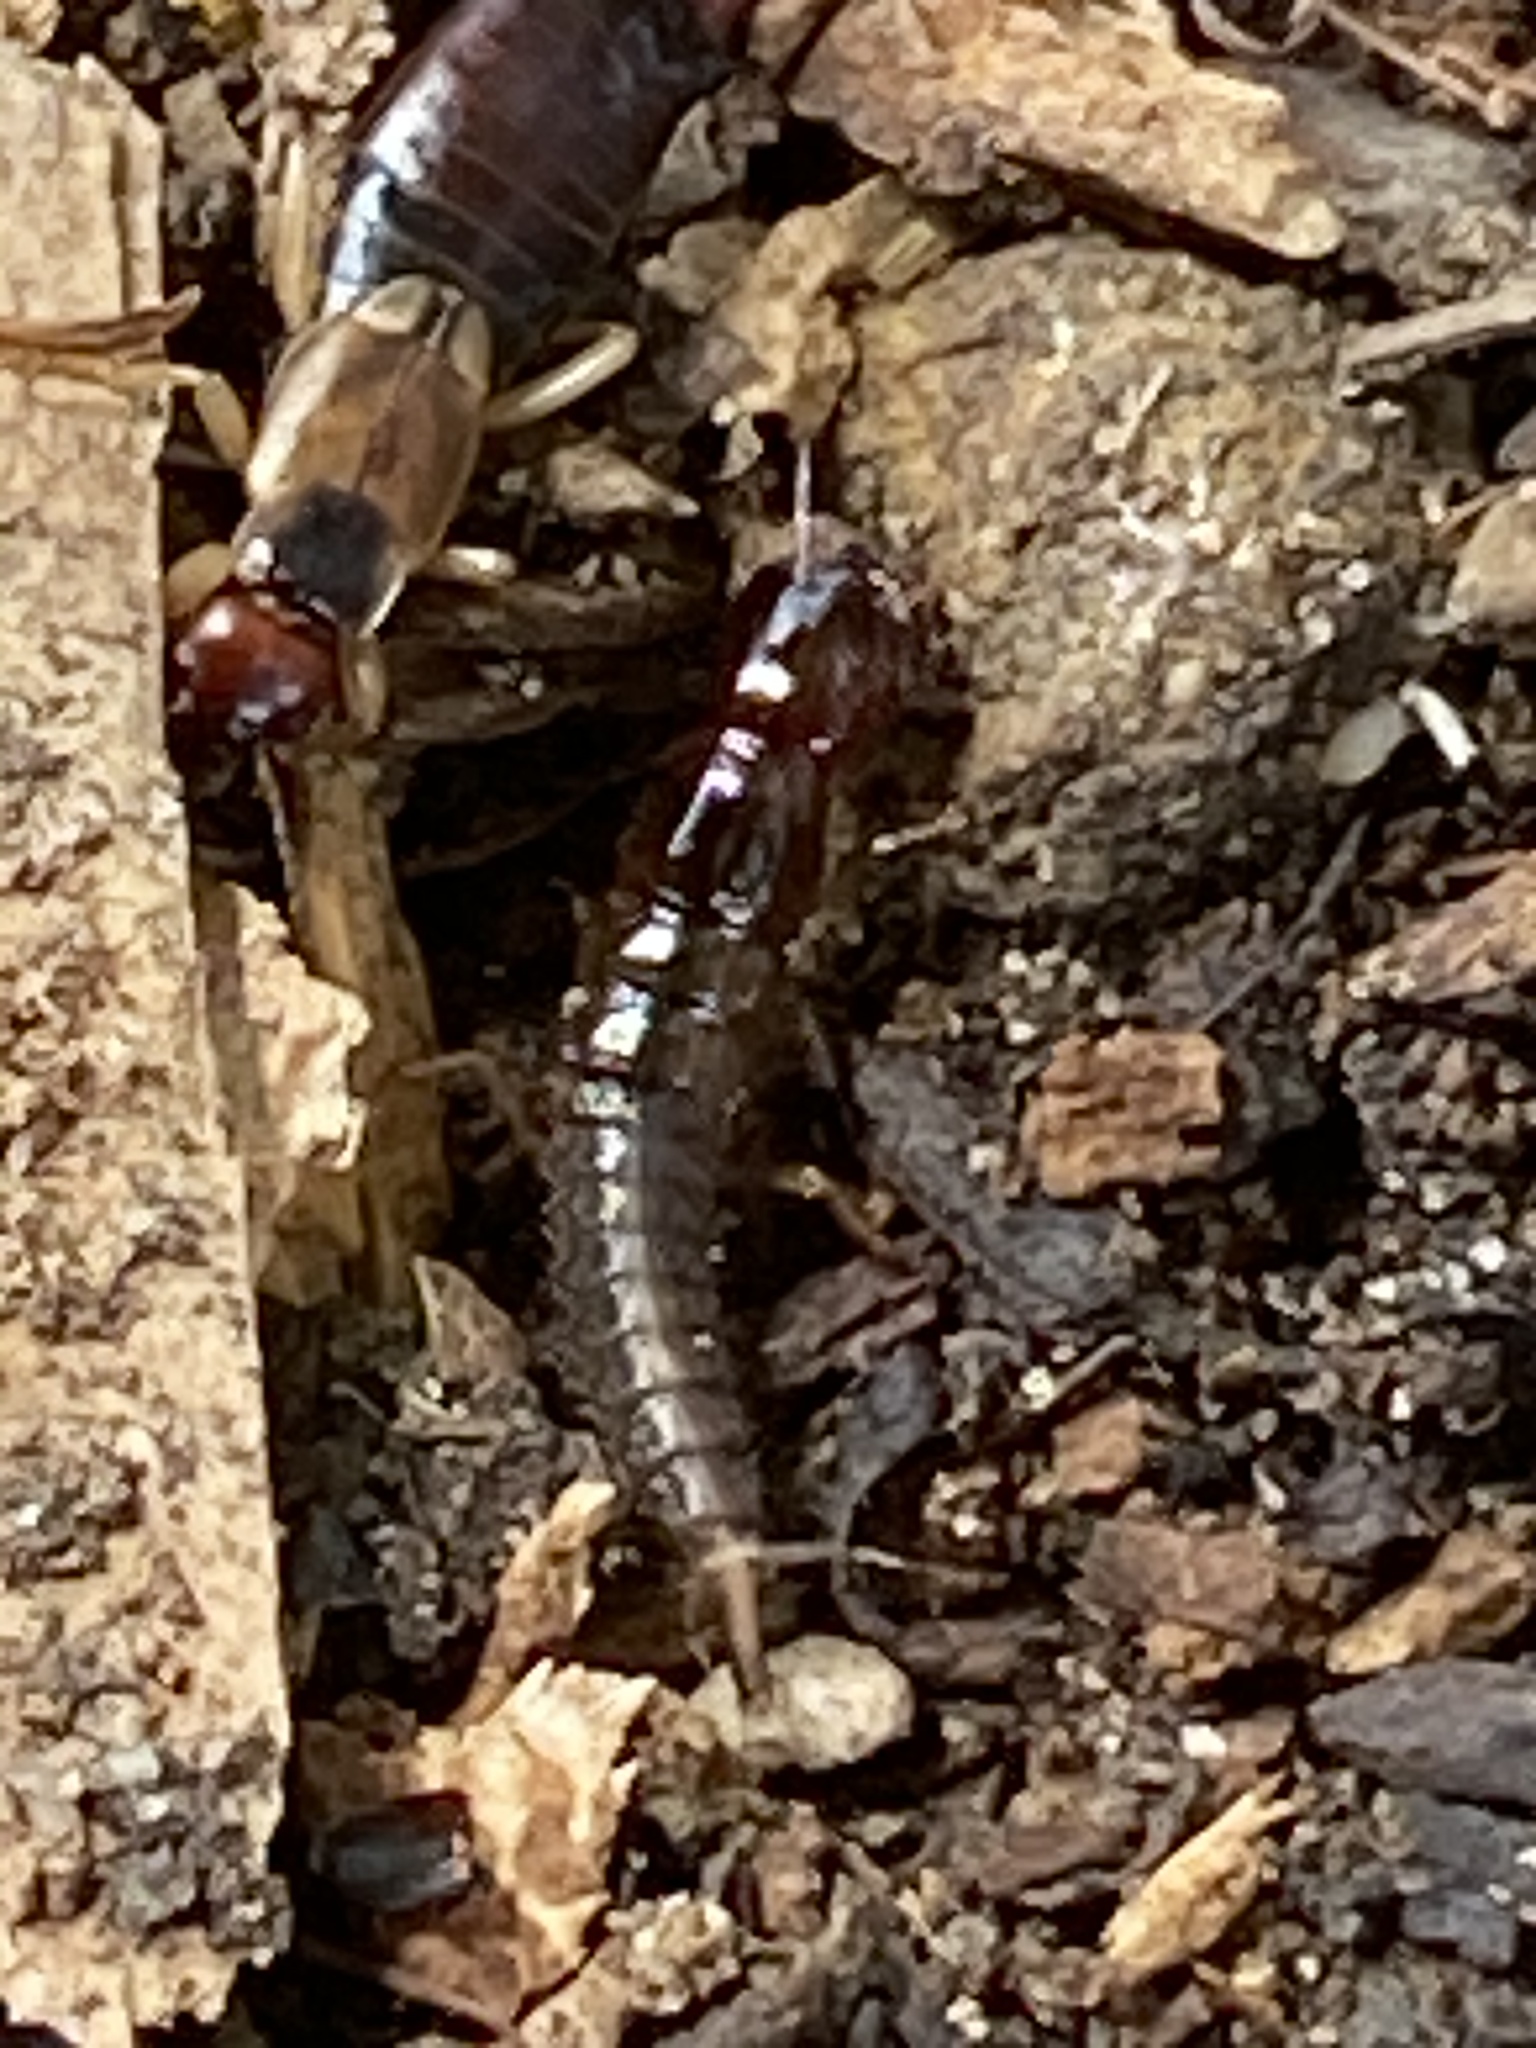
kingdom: Animalia
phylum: Arthropoda
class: Insecta
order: Dermaptera
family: Forficulidae
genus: Forficula
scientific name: Forficula
